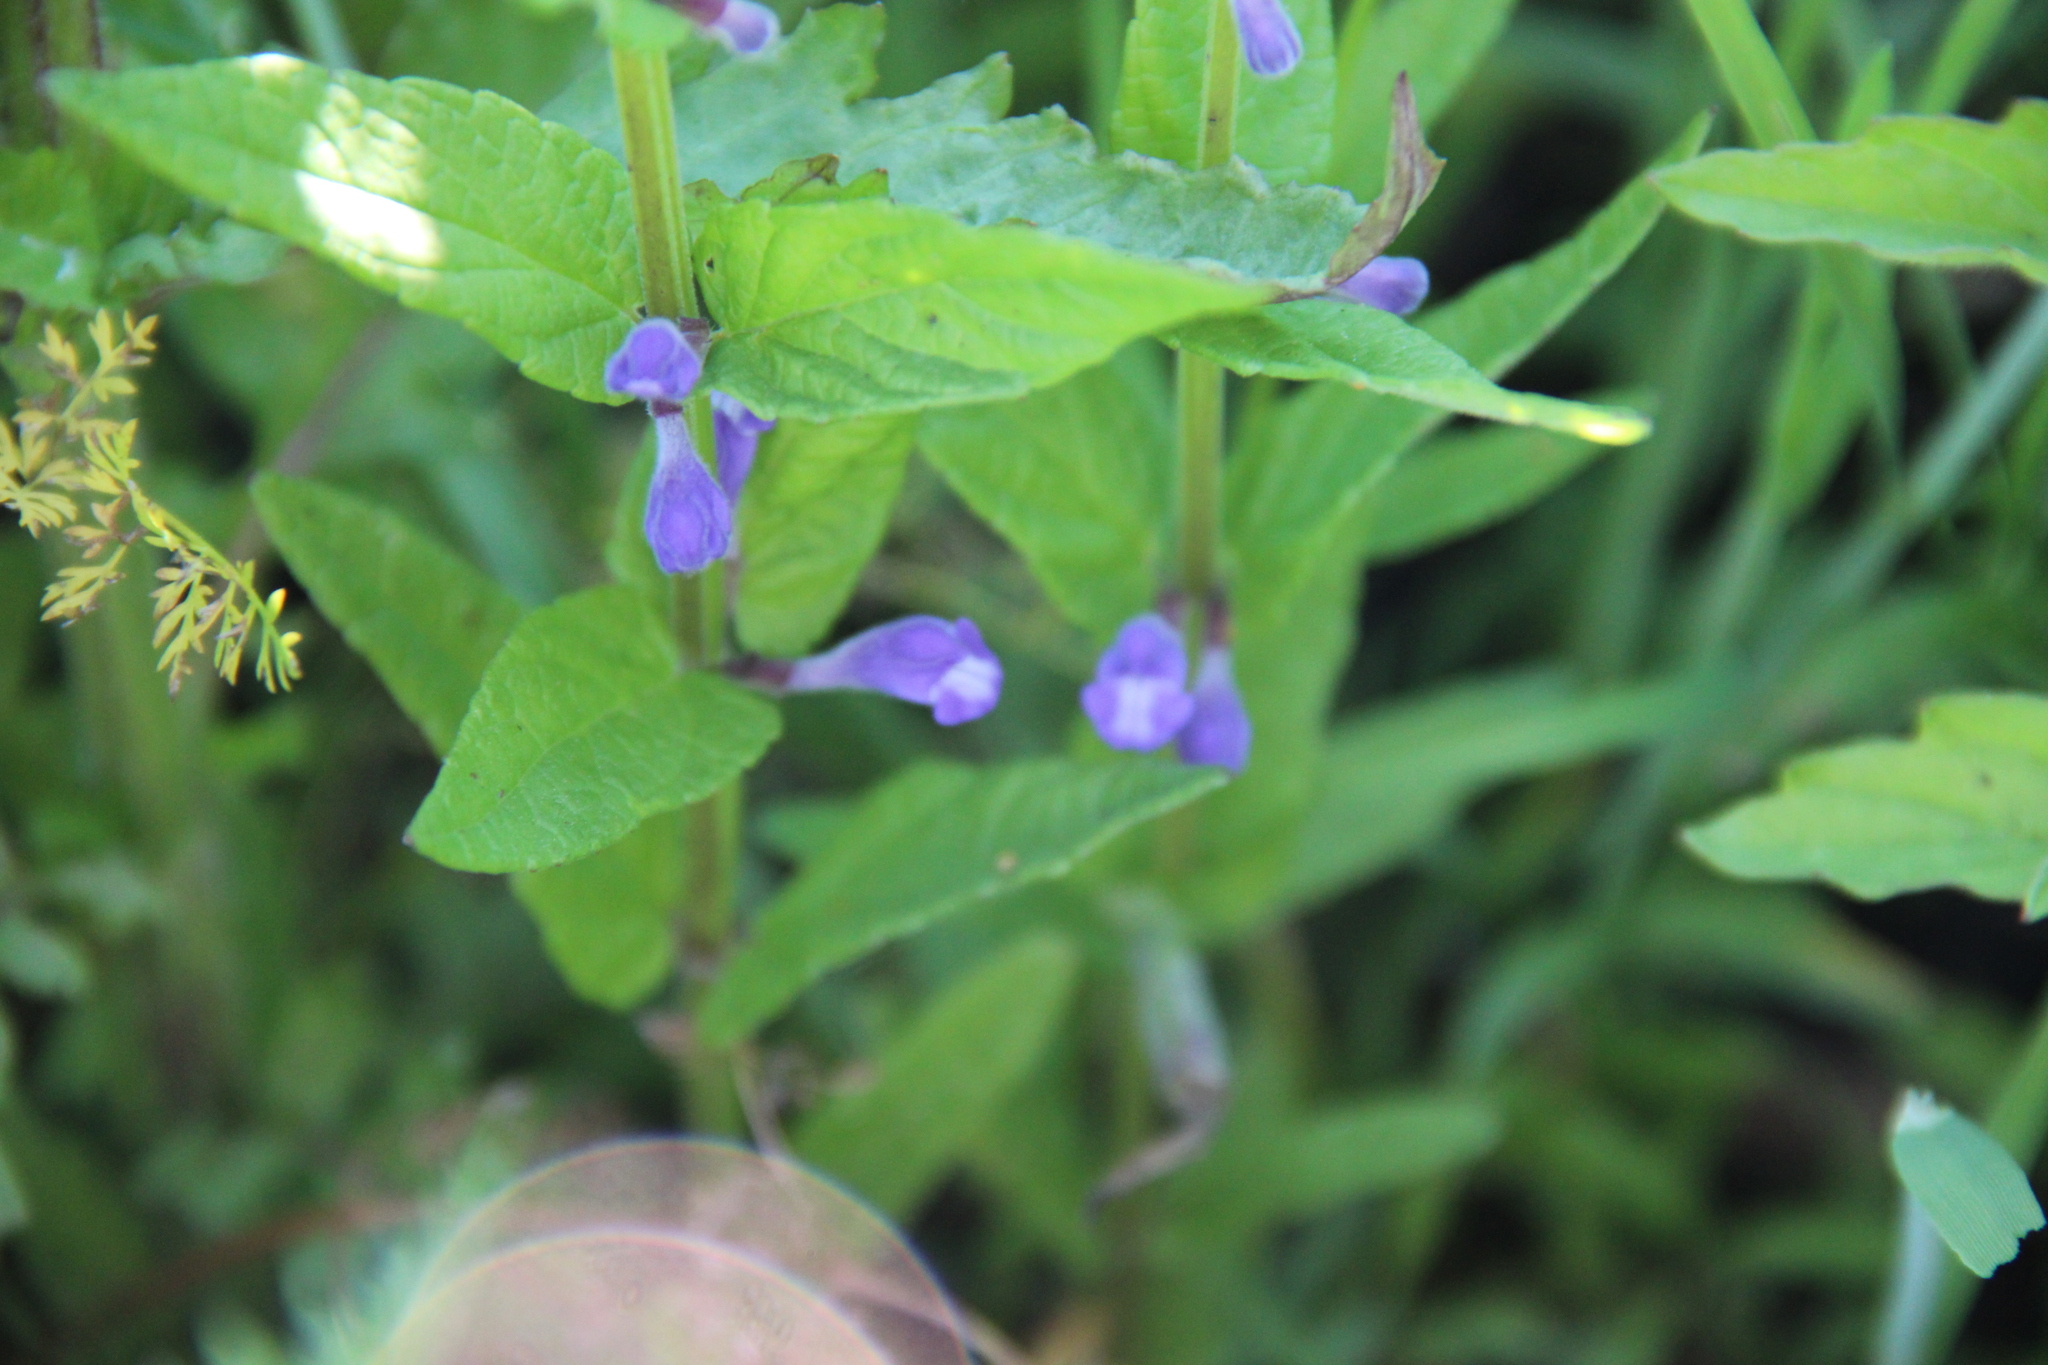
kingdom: Plantae
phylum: Tracheophyta
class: Magnoliopsida
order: Lamiales
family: Lamiaceae
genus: Scutellaria
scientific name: Scutellaria galericulata
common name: Skullcap
